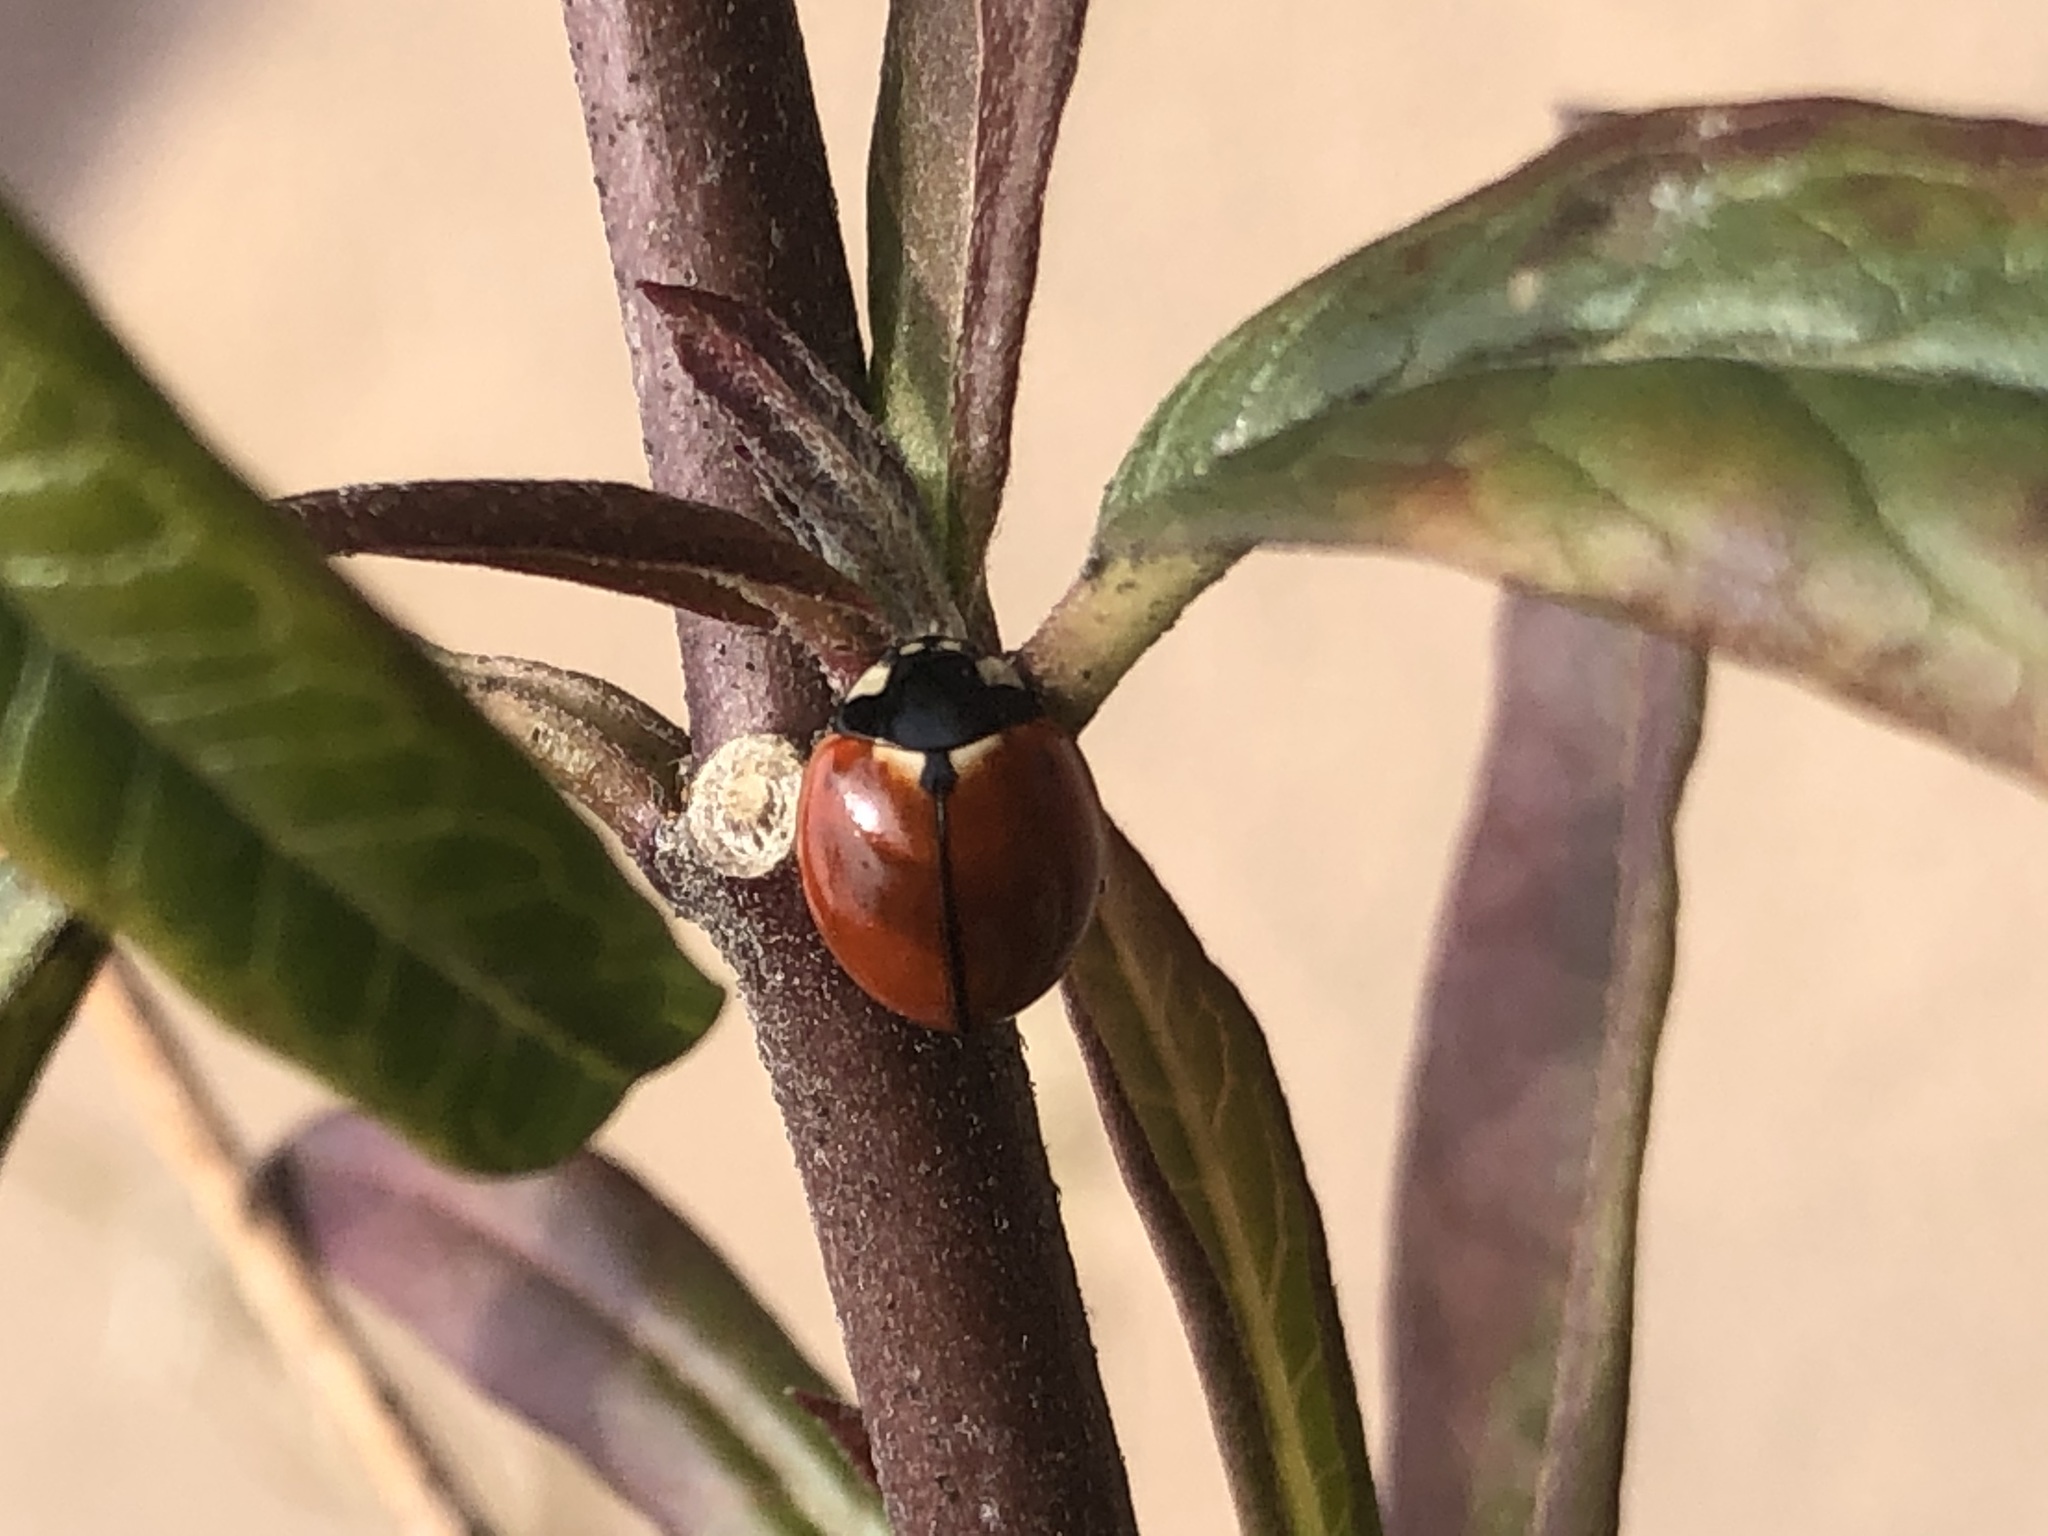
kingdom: Animalia
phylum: Arthropoda
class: Insecta
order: Coleoptera
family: Coccinellidae
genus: Coccinella
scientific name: Coccinella californica
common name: Lady beetle
